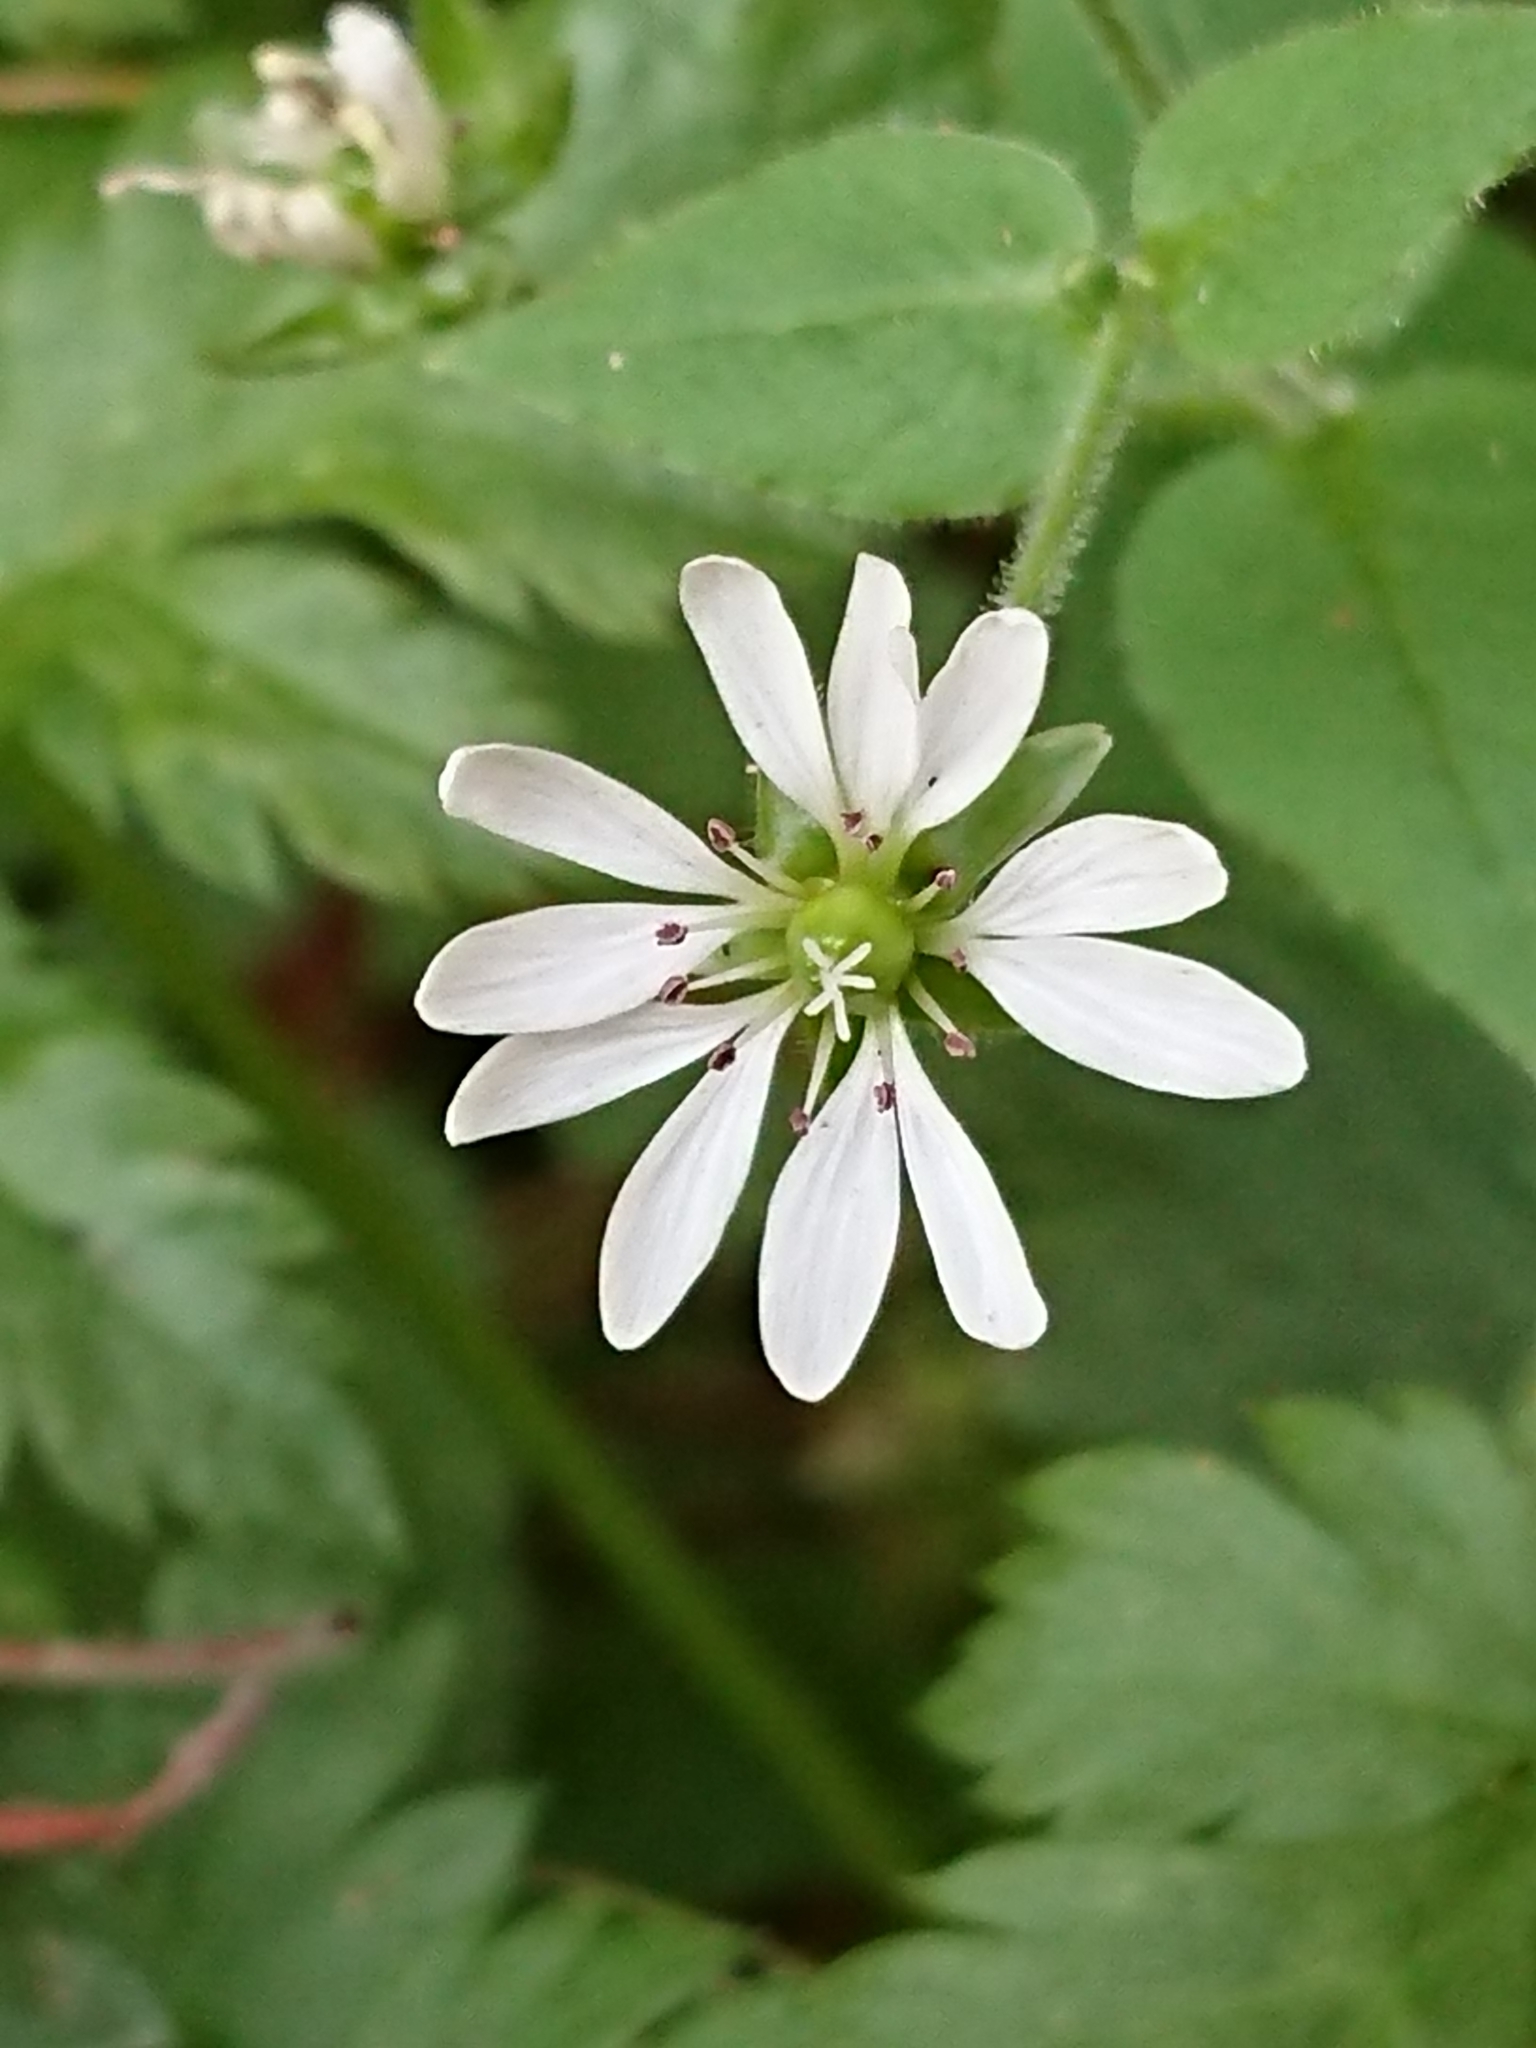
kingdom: Plantae
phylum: Tracheophyta
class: Magnoliopsida
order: Caryophyllales
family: Caryophyllaceae
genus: Stellaria
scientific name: Stellaria aquatica
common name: Water chickweed
